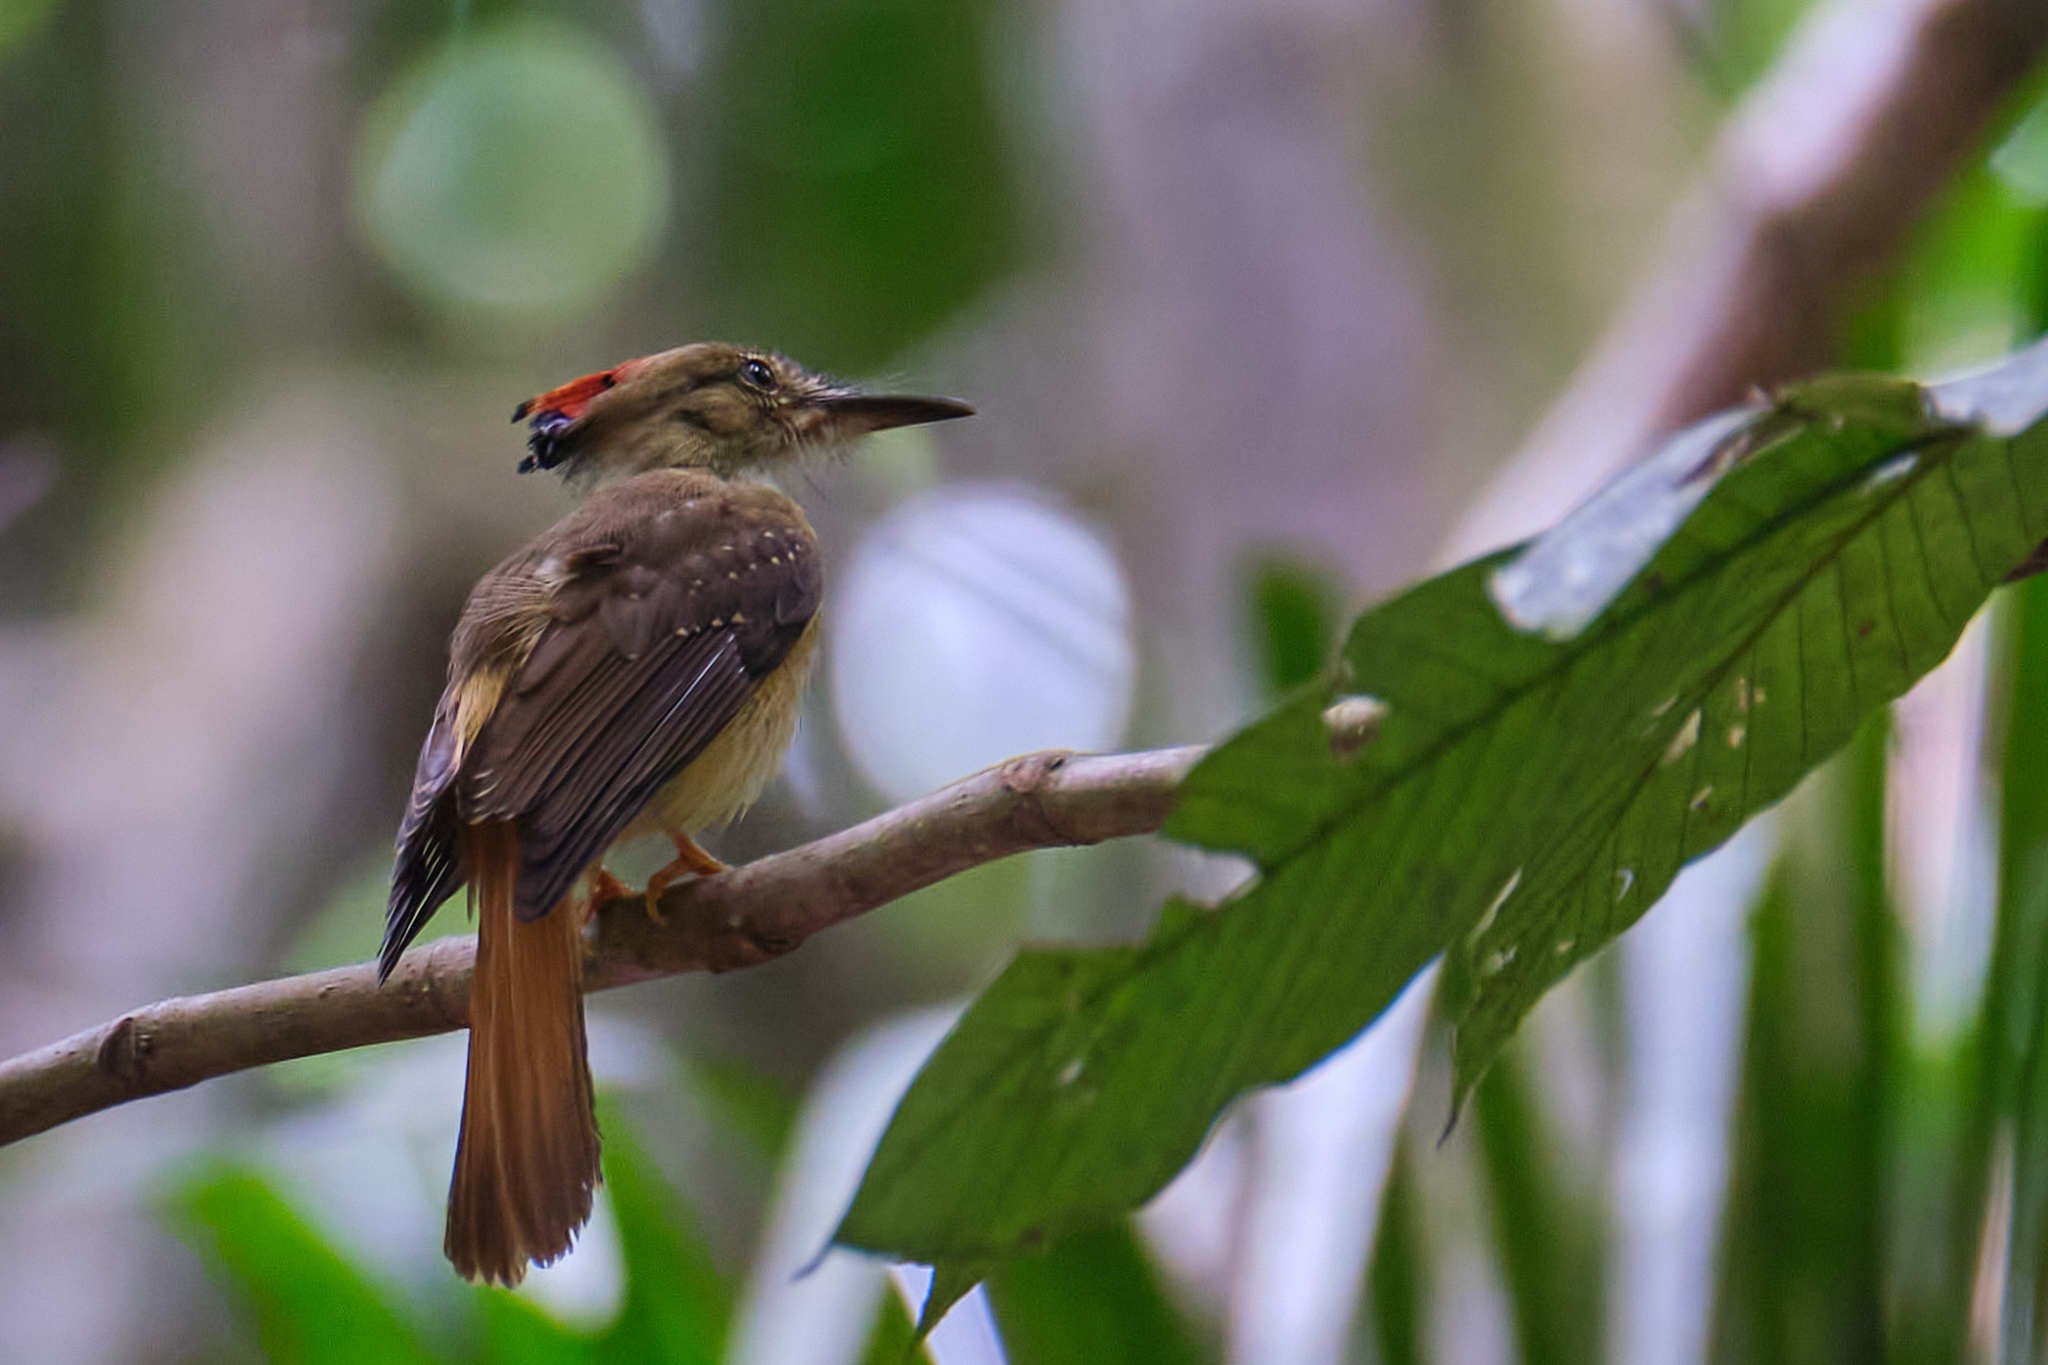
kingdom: Animalia
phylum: Chordata
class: Aves
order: Passeriformes
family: Tyrannidae
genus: Onychorhynchus
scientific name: Onychorhynchus coronatus
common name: Royal flycatcher
